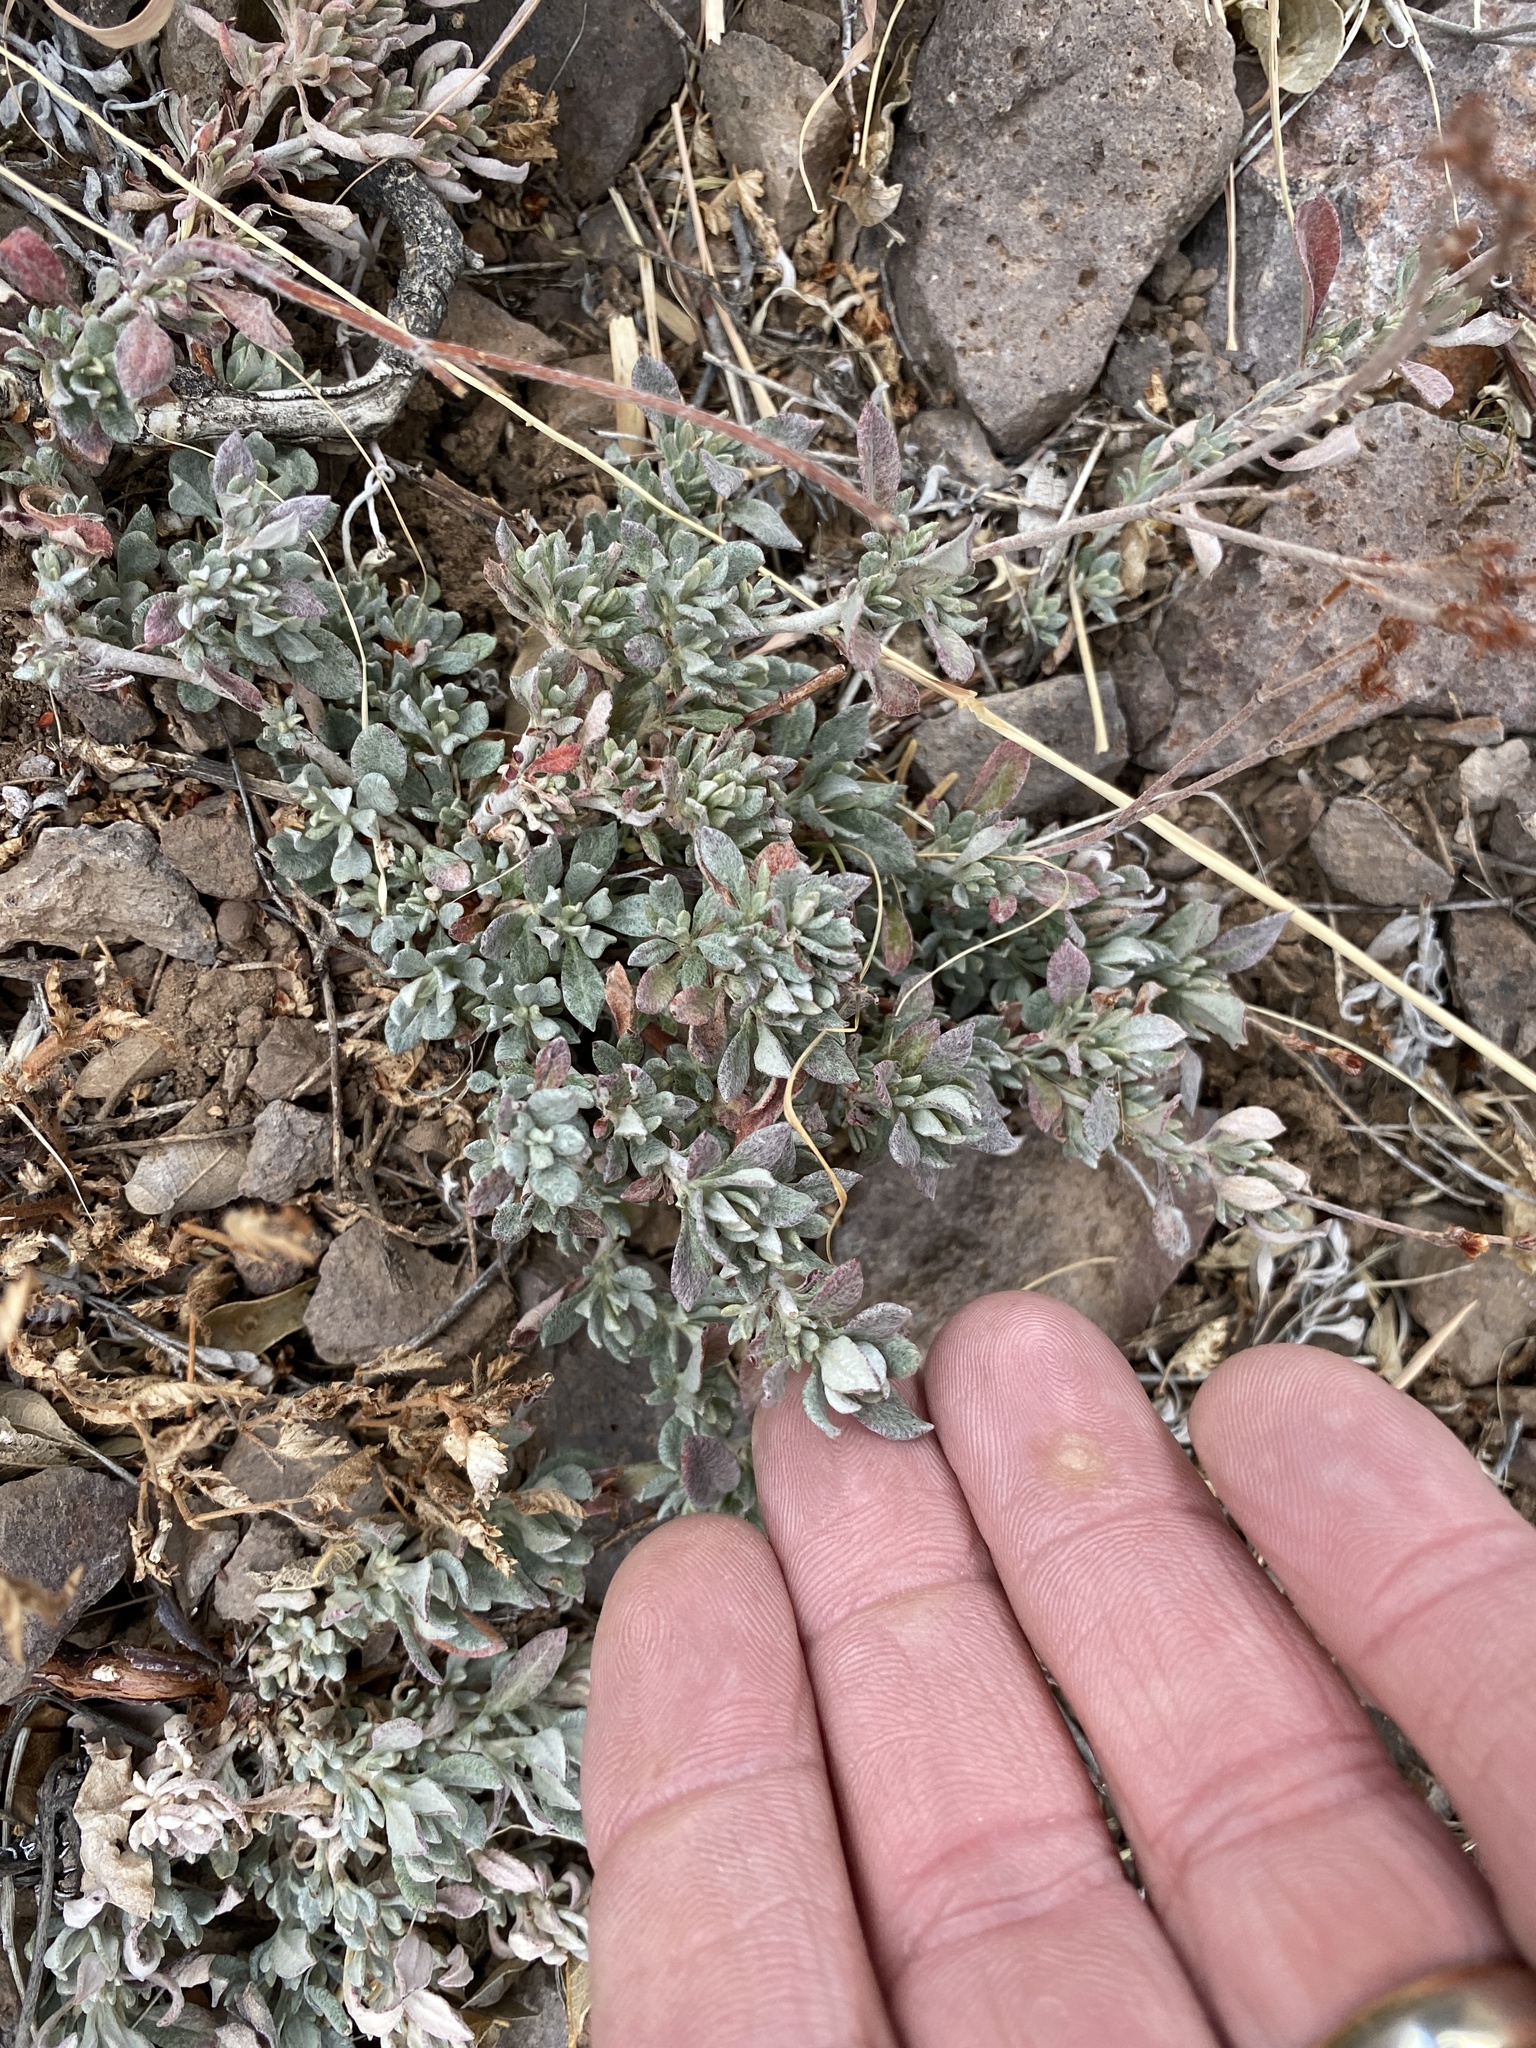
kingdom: Plantae
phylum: Tracheophyta
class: Magnoliopsida
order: Caryophyllales
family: Polygonaceae
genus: Eriogonum
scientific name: Eriogonum wrightii
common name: Bastard-sage
